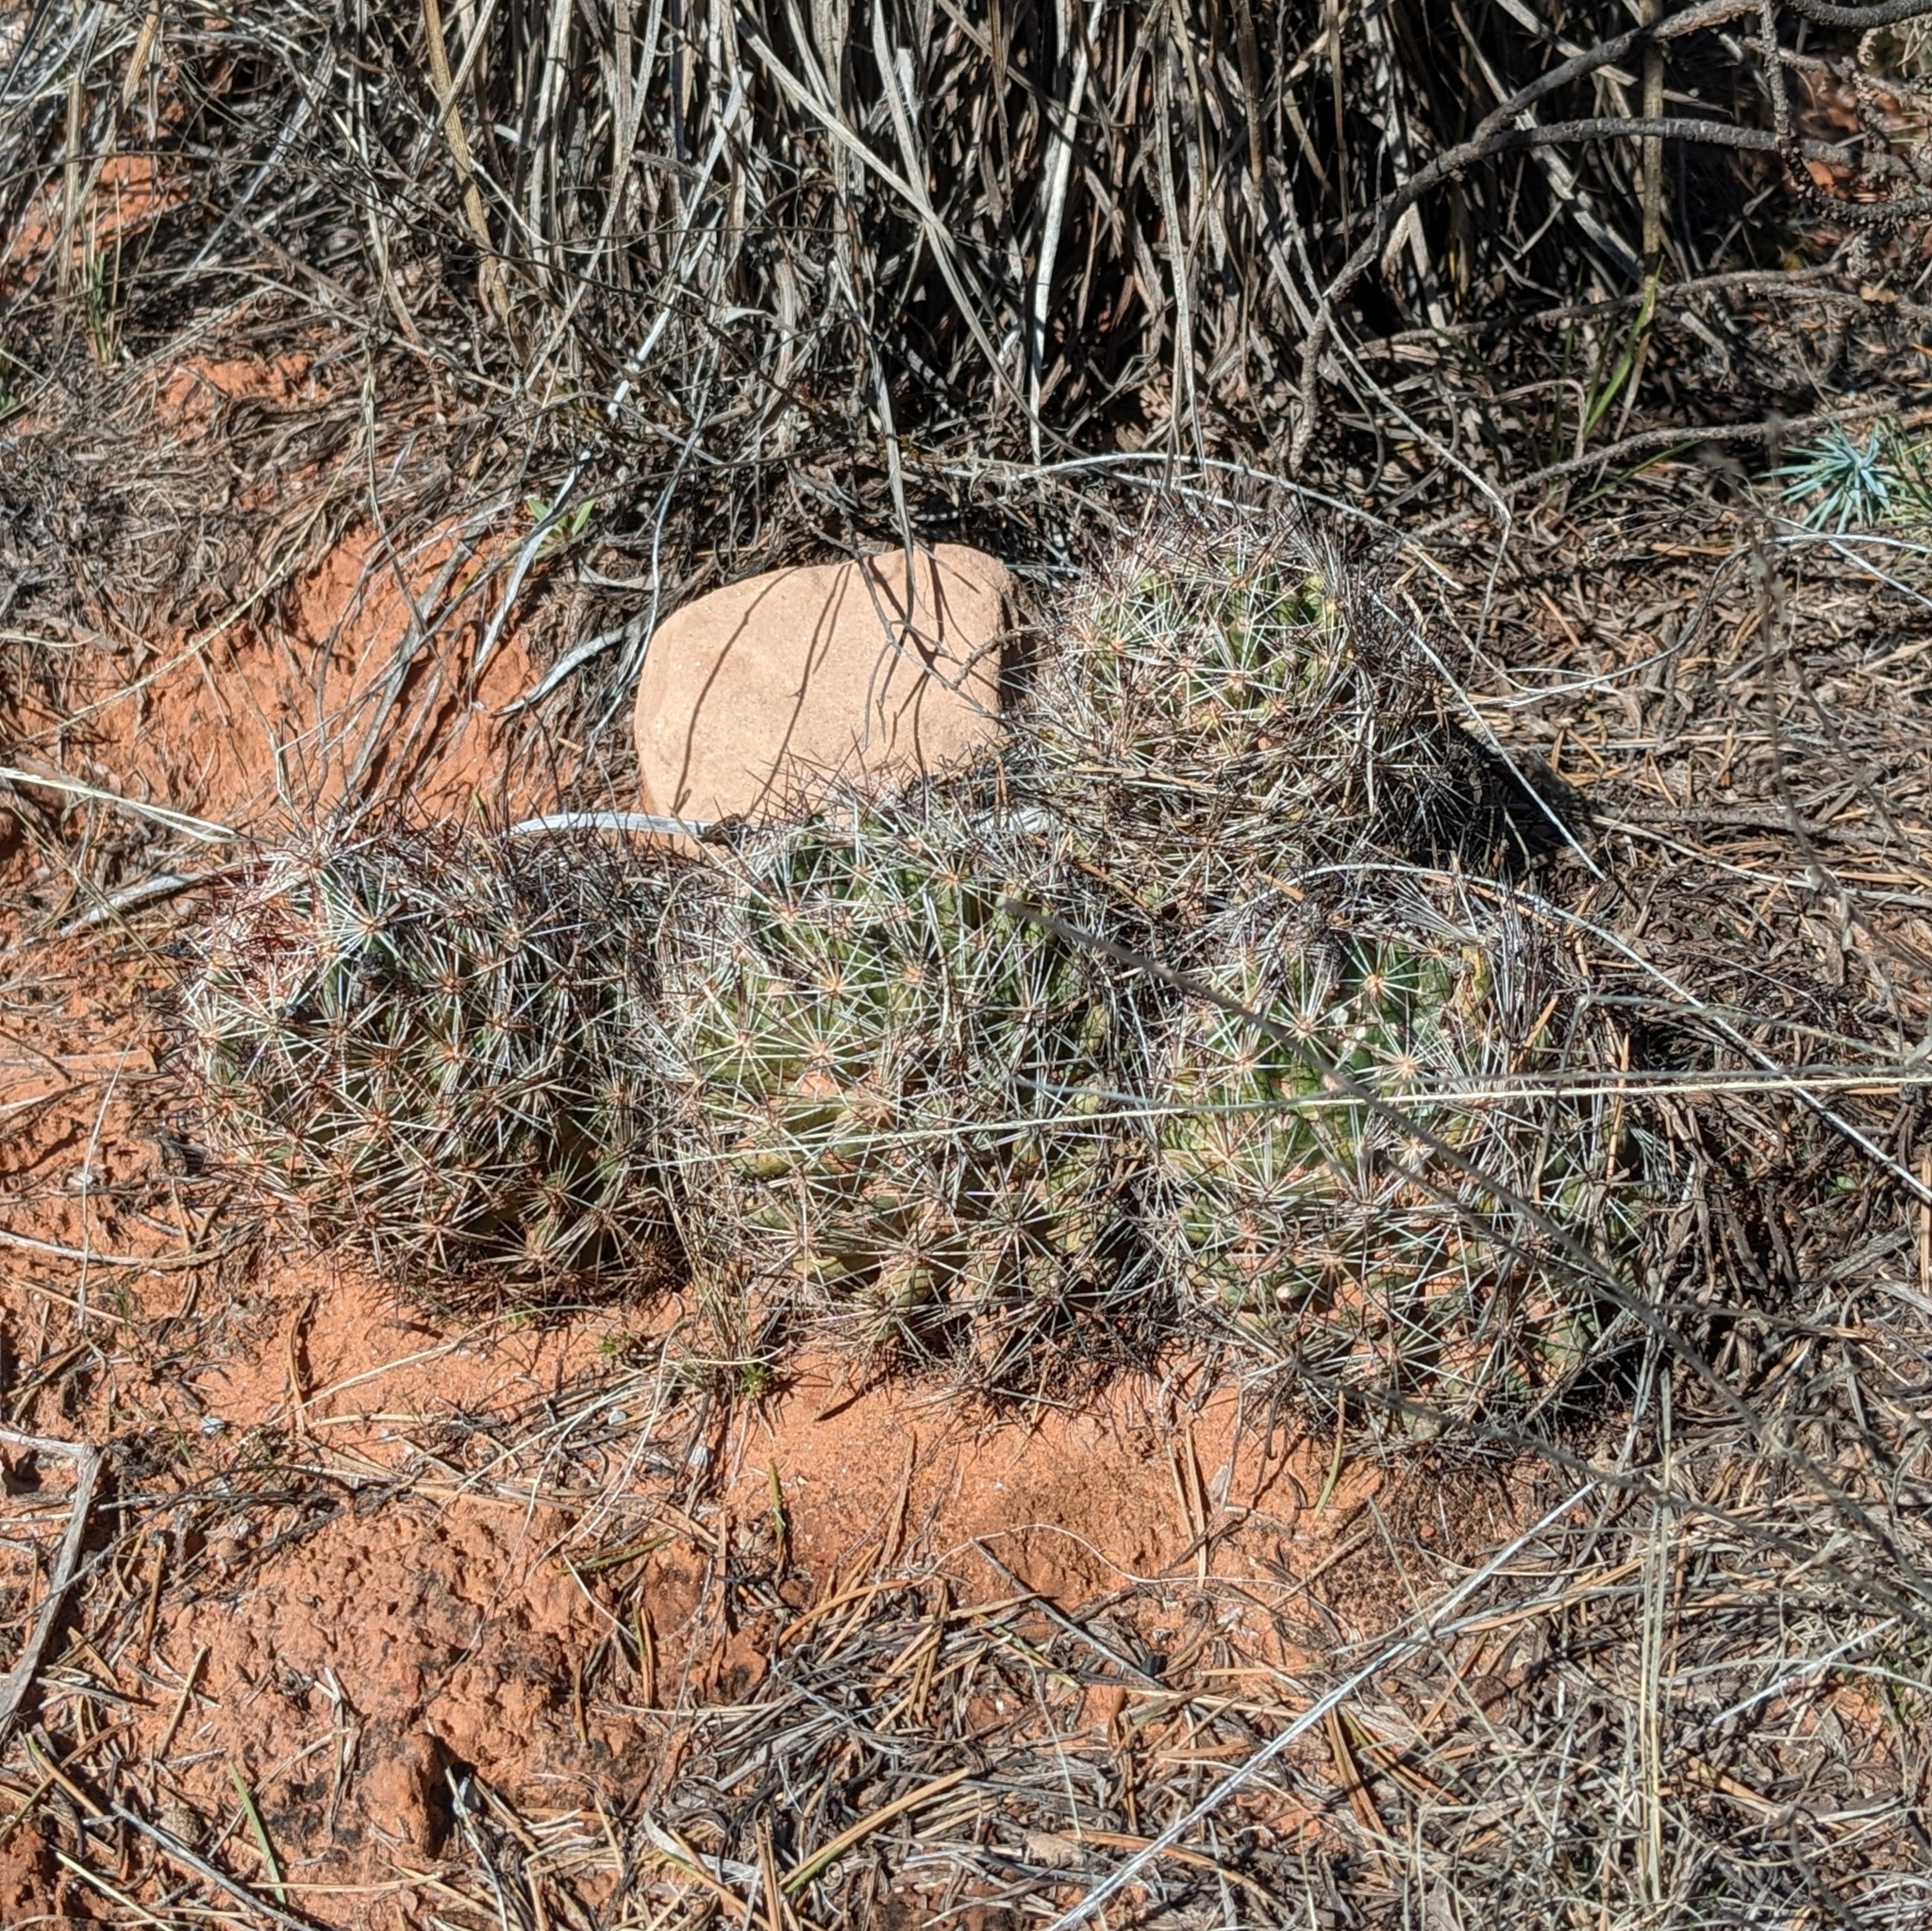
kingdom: Plantae
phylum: Tracheophyta
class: Magnoliopsida
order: Caryophyllales
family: Cactaceae
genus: Pelecyphora
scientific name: Pelecyphora vivipara
